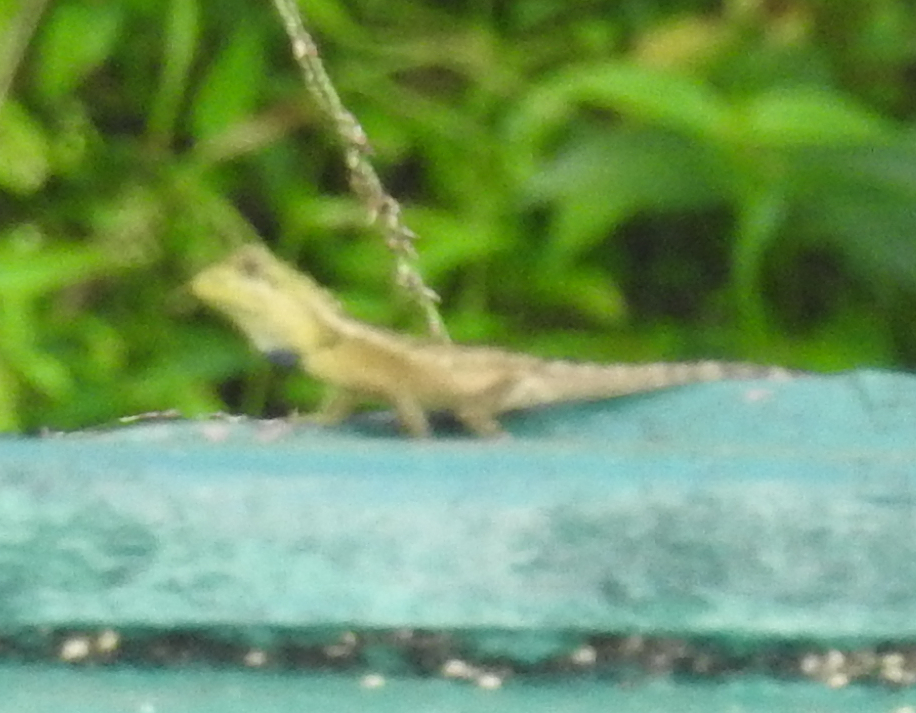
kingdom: Animalia
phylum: Chordata
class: Squamata
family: Agamidae
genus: Japalura
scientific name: Japalura variegata
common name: East himalayan mountain lizard
